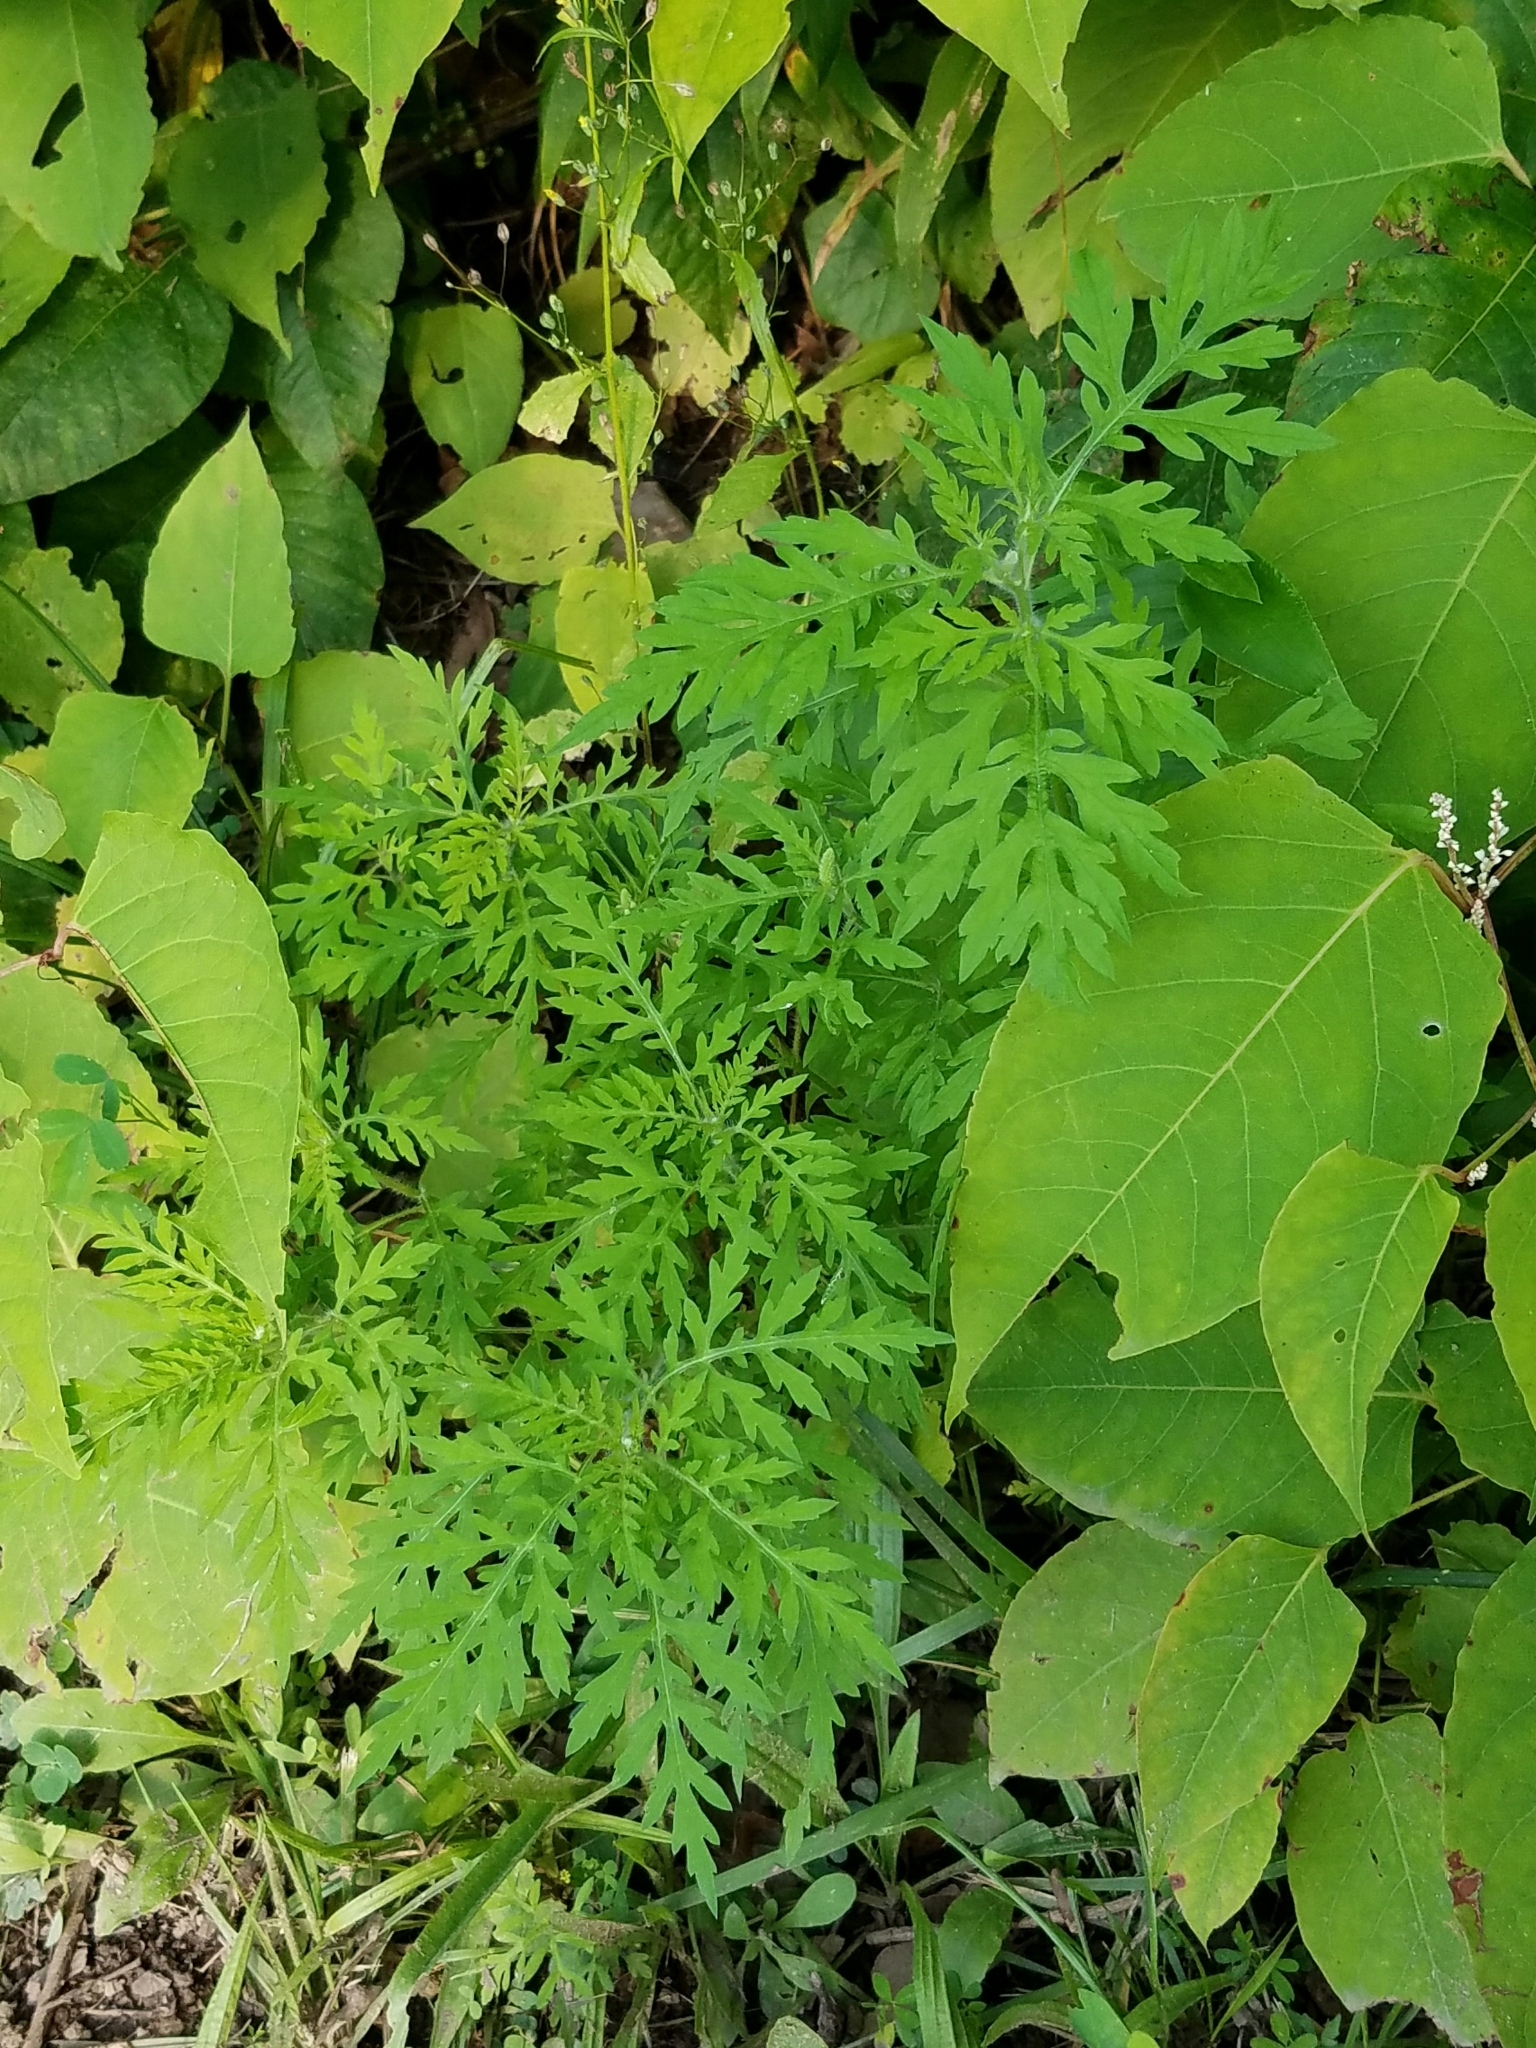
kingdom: Plantae
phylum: Tracheophyta
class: Magnoliopsida
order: Asterales
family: Asteraceae
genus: Ambrosia
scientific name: Ambrosia artemisiifolia
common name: Annual ragweed
